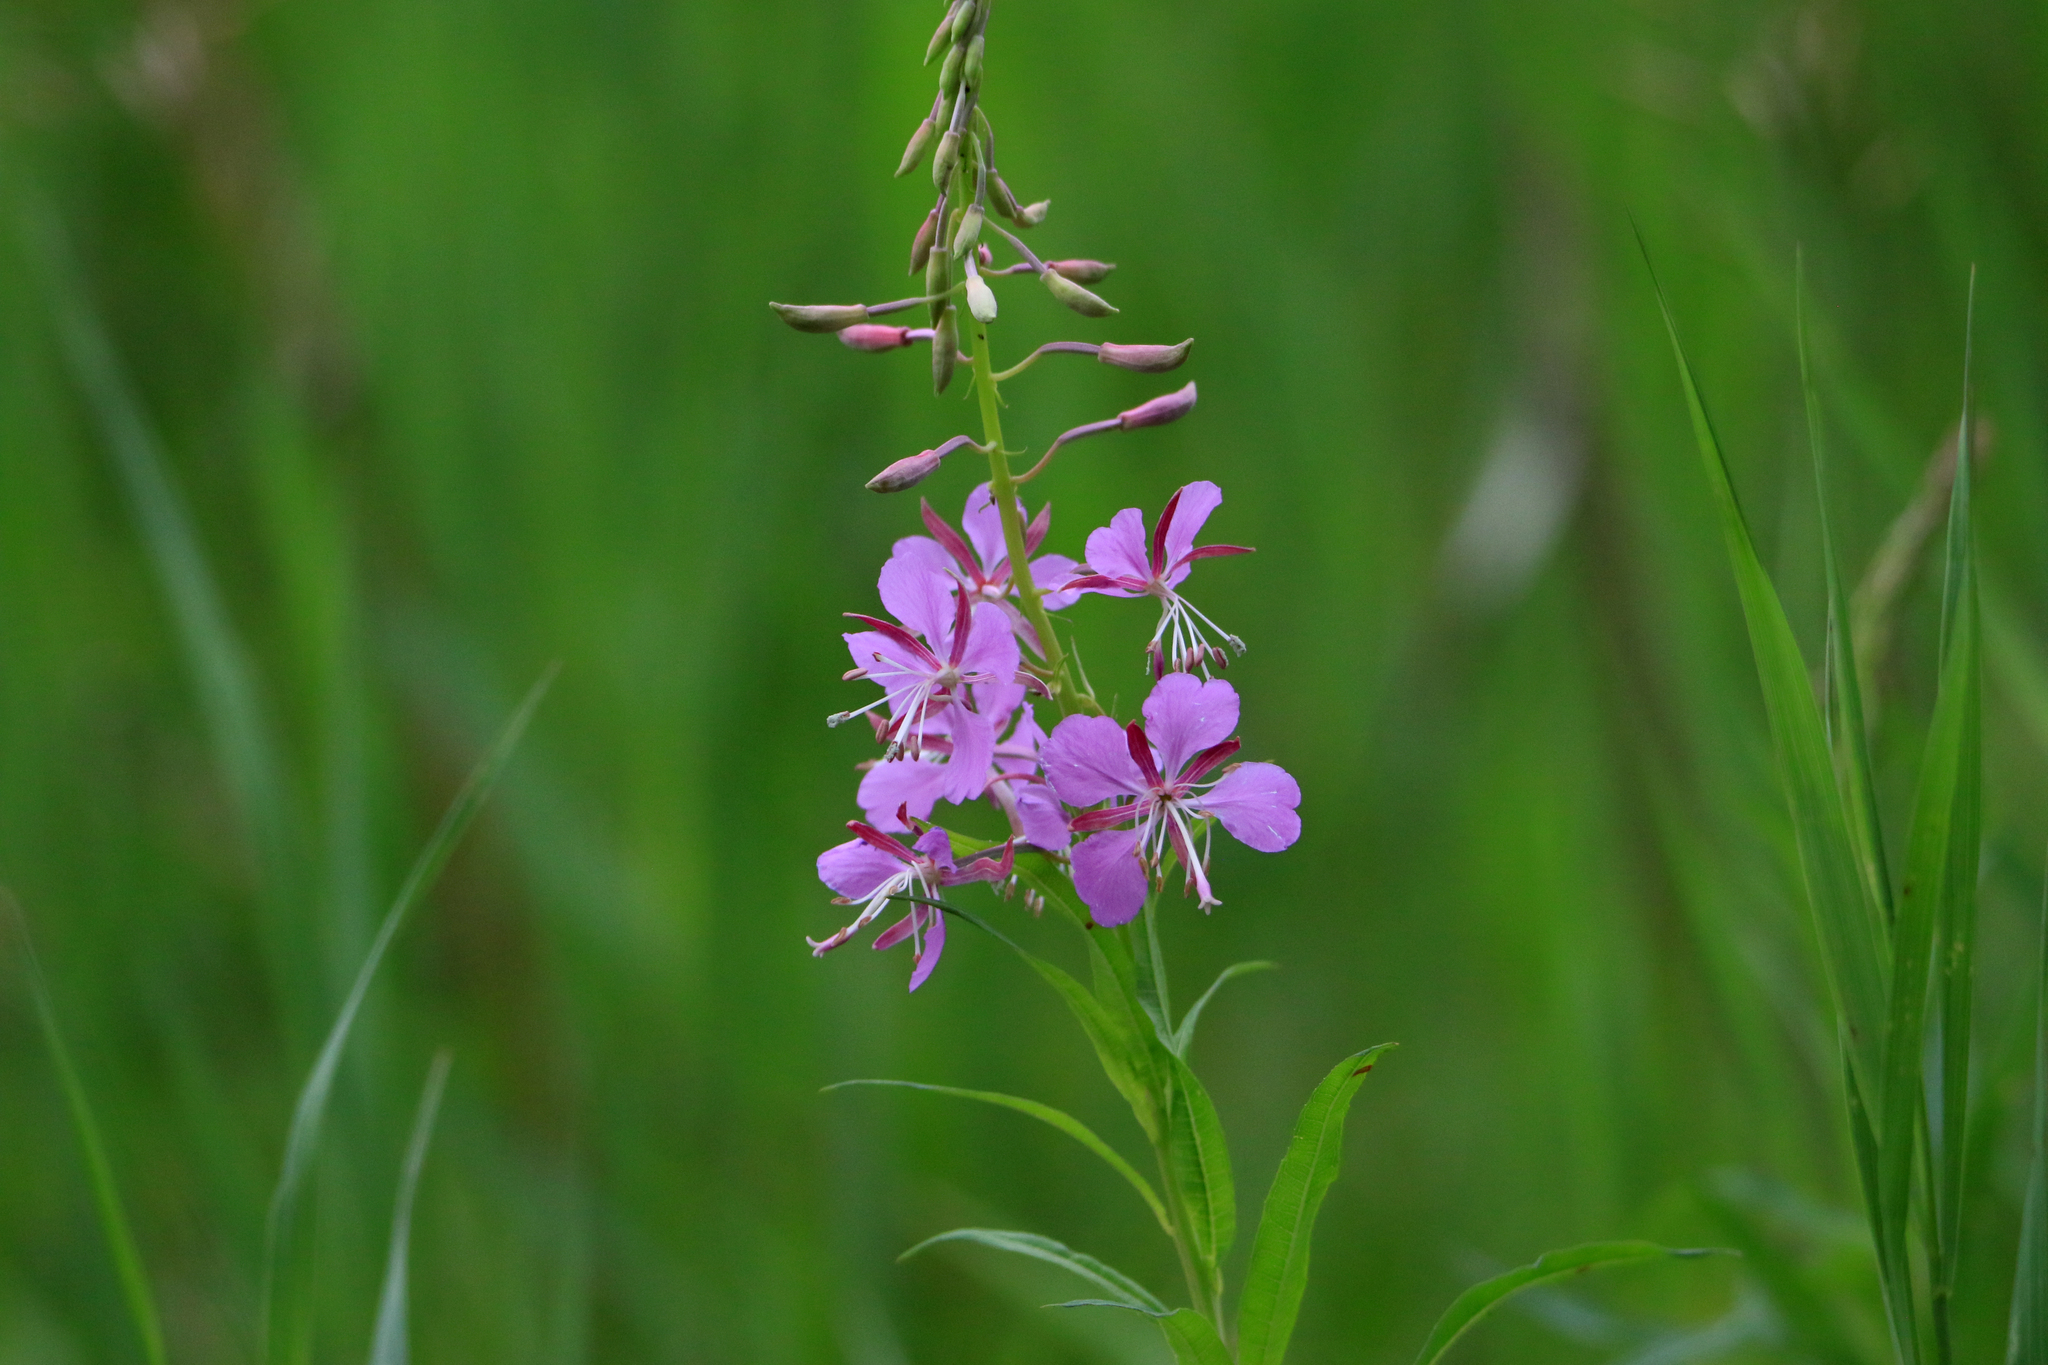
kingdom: Plantae
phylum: Tracheophyta
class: Magnoliopsida
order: Myrtales
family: Onagraceae
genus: Chamaenerion
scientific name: Chamaenerion angustifolium
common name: Fireweed
